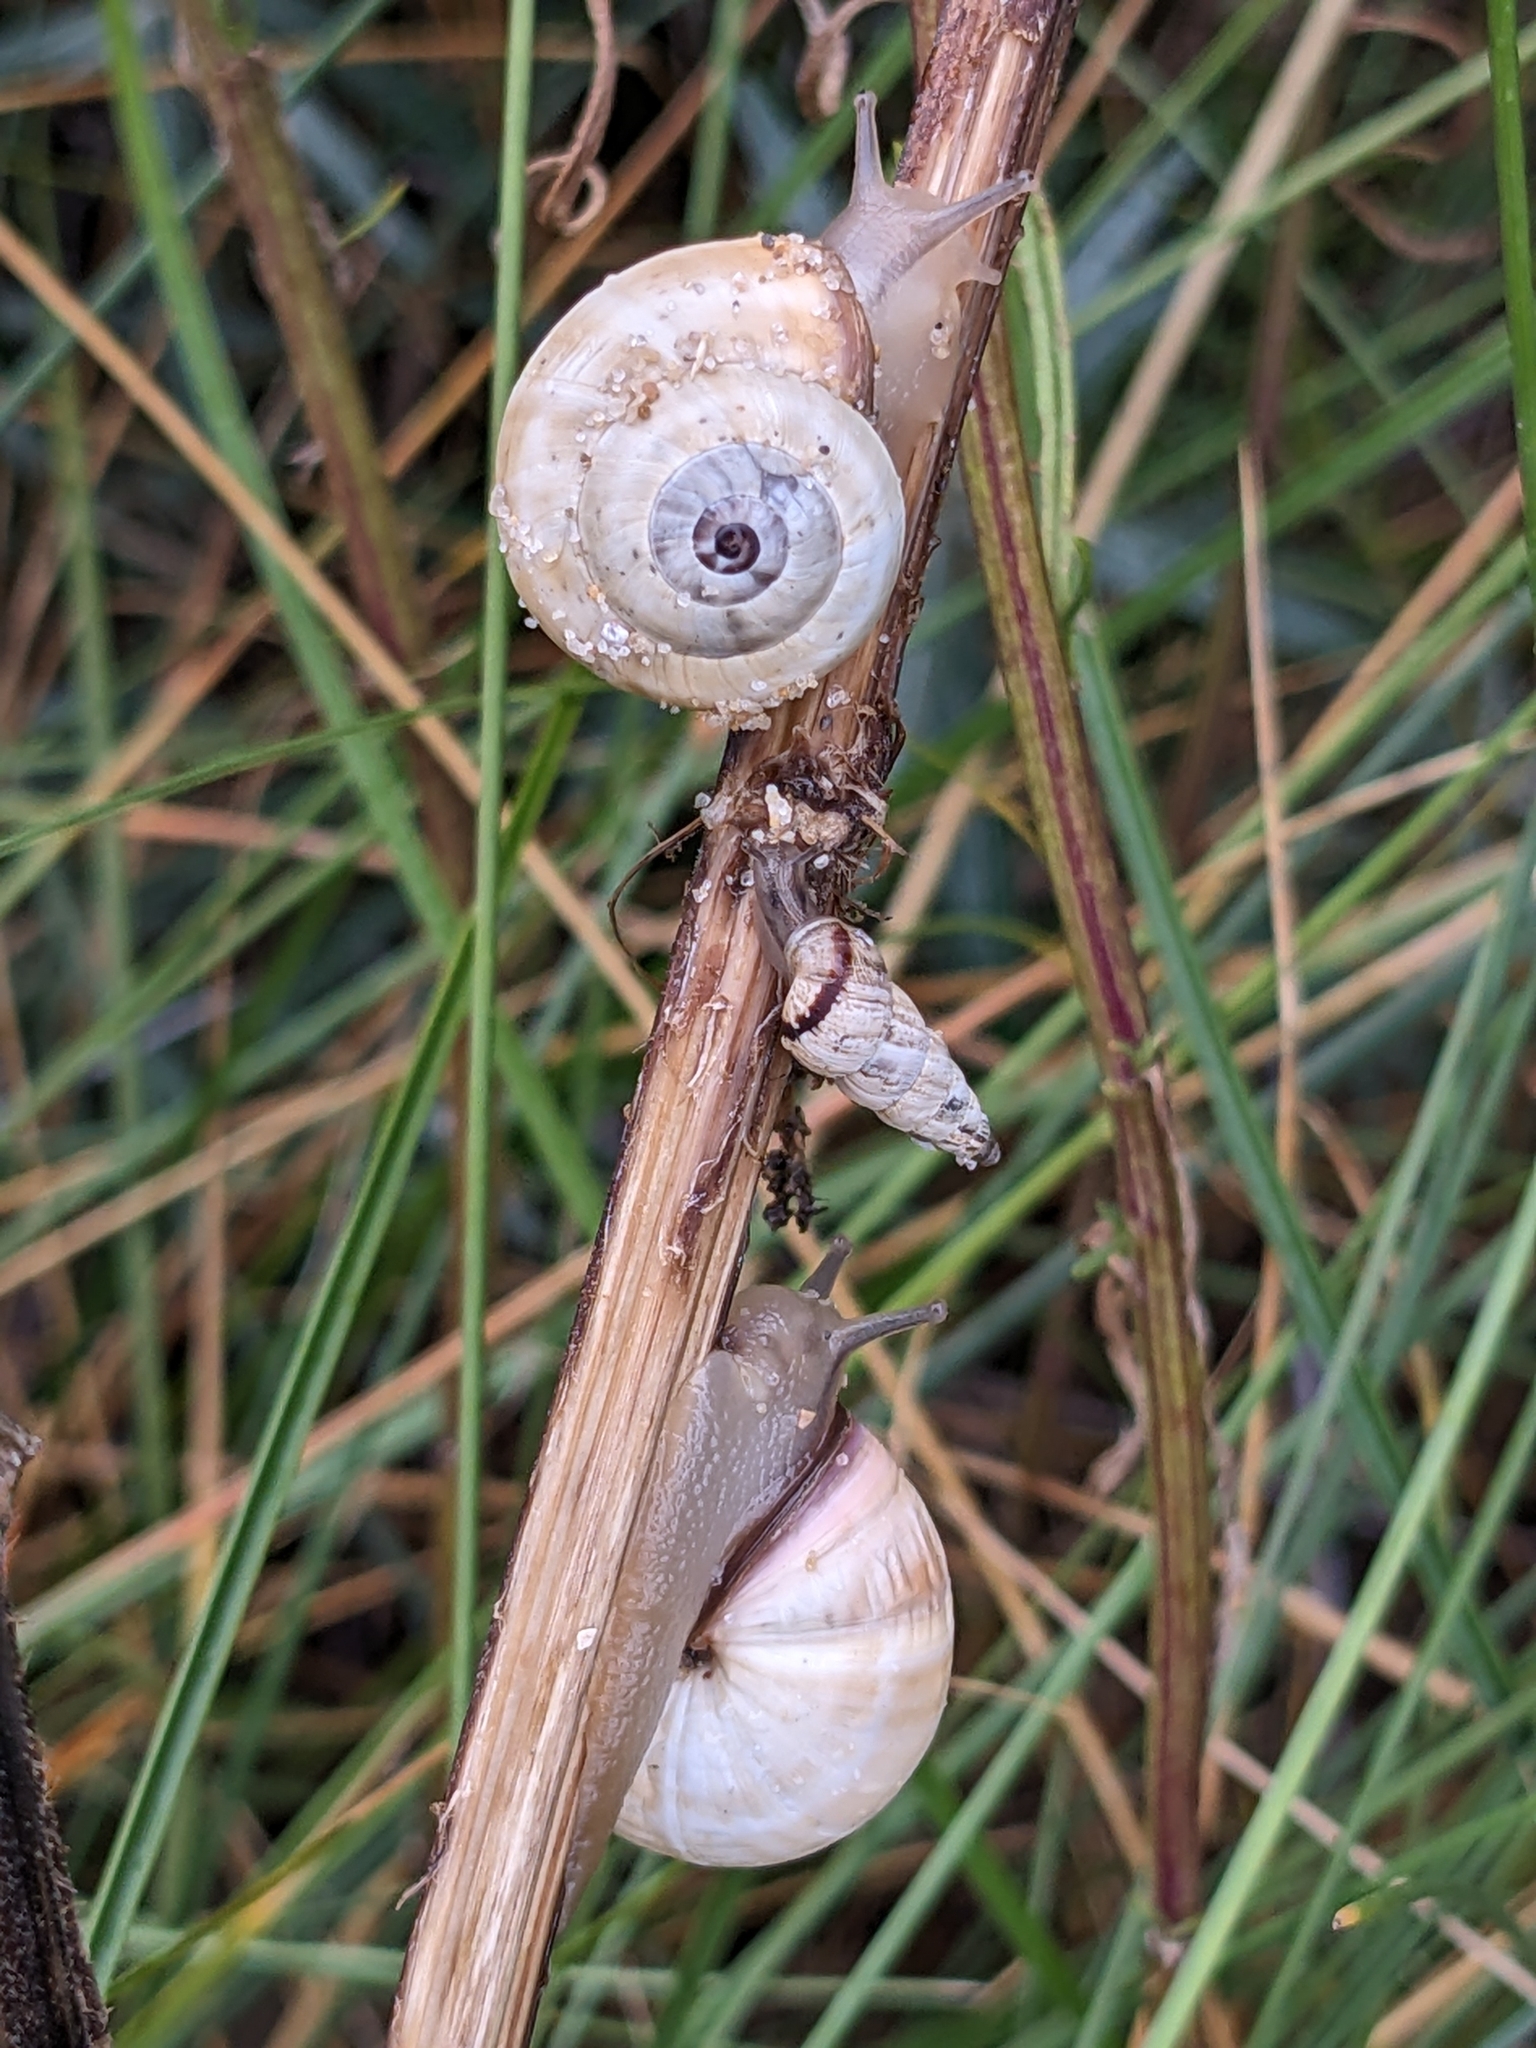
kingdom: Animalia
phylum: Mollusca
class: Gastropoda
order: Stylommatophora
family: Helicidae
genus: Theba
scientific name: Theba pisana
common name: White snail
